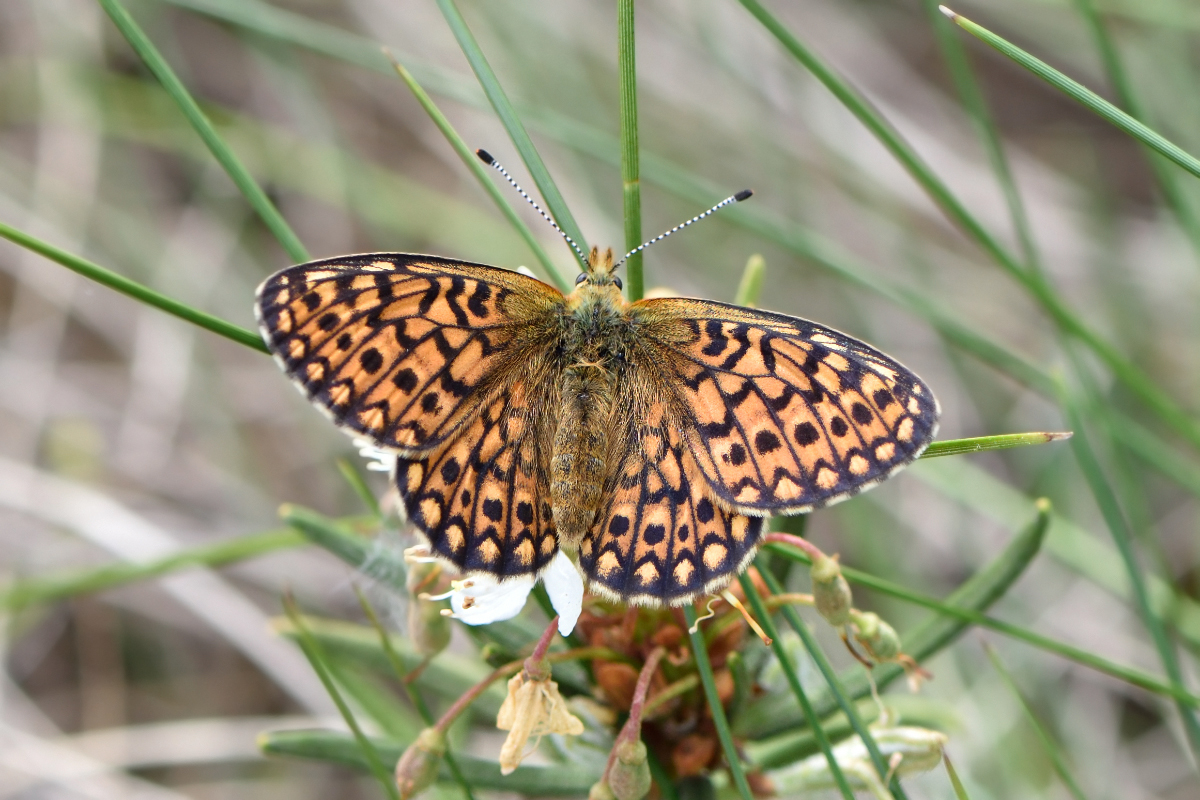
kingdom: Animalia
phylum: Arthropoda
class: Insecta
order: Lepidoptera
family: Nymphalidae
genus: Boloria
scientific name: Boloria eunomia
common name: Bog fritillary
